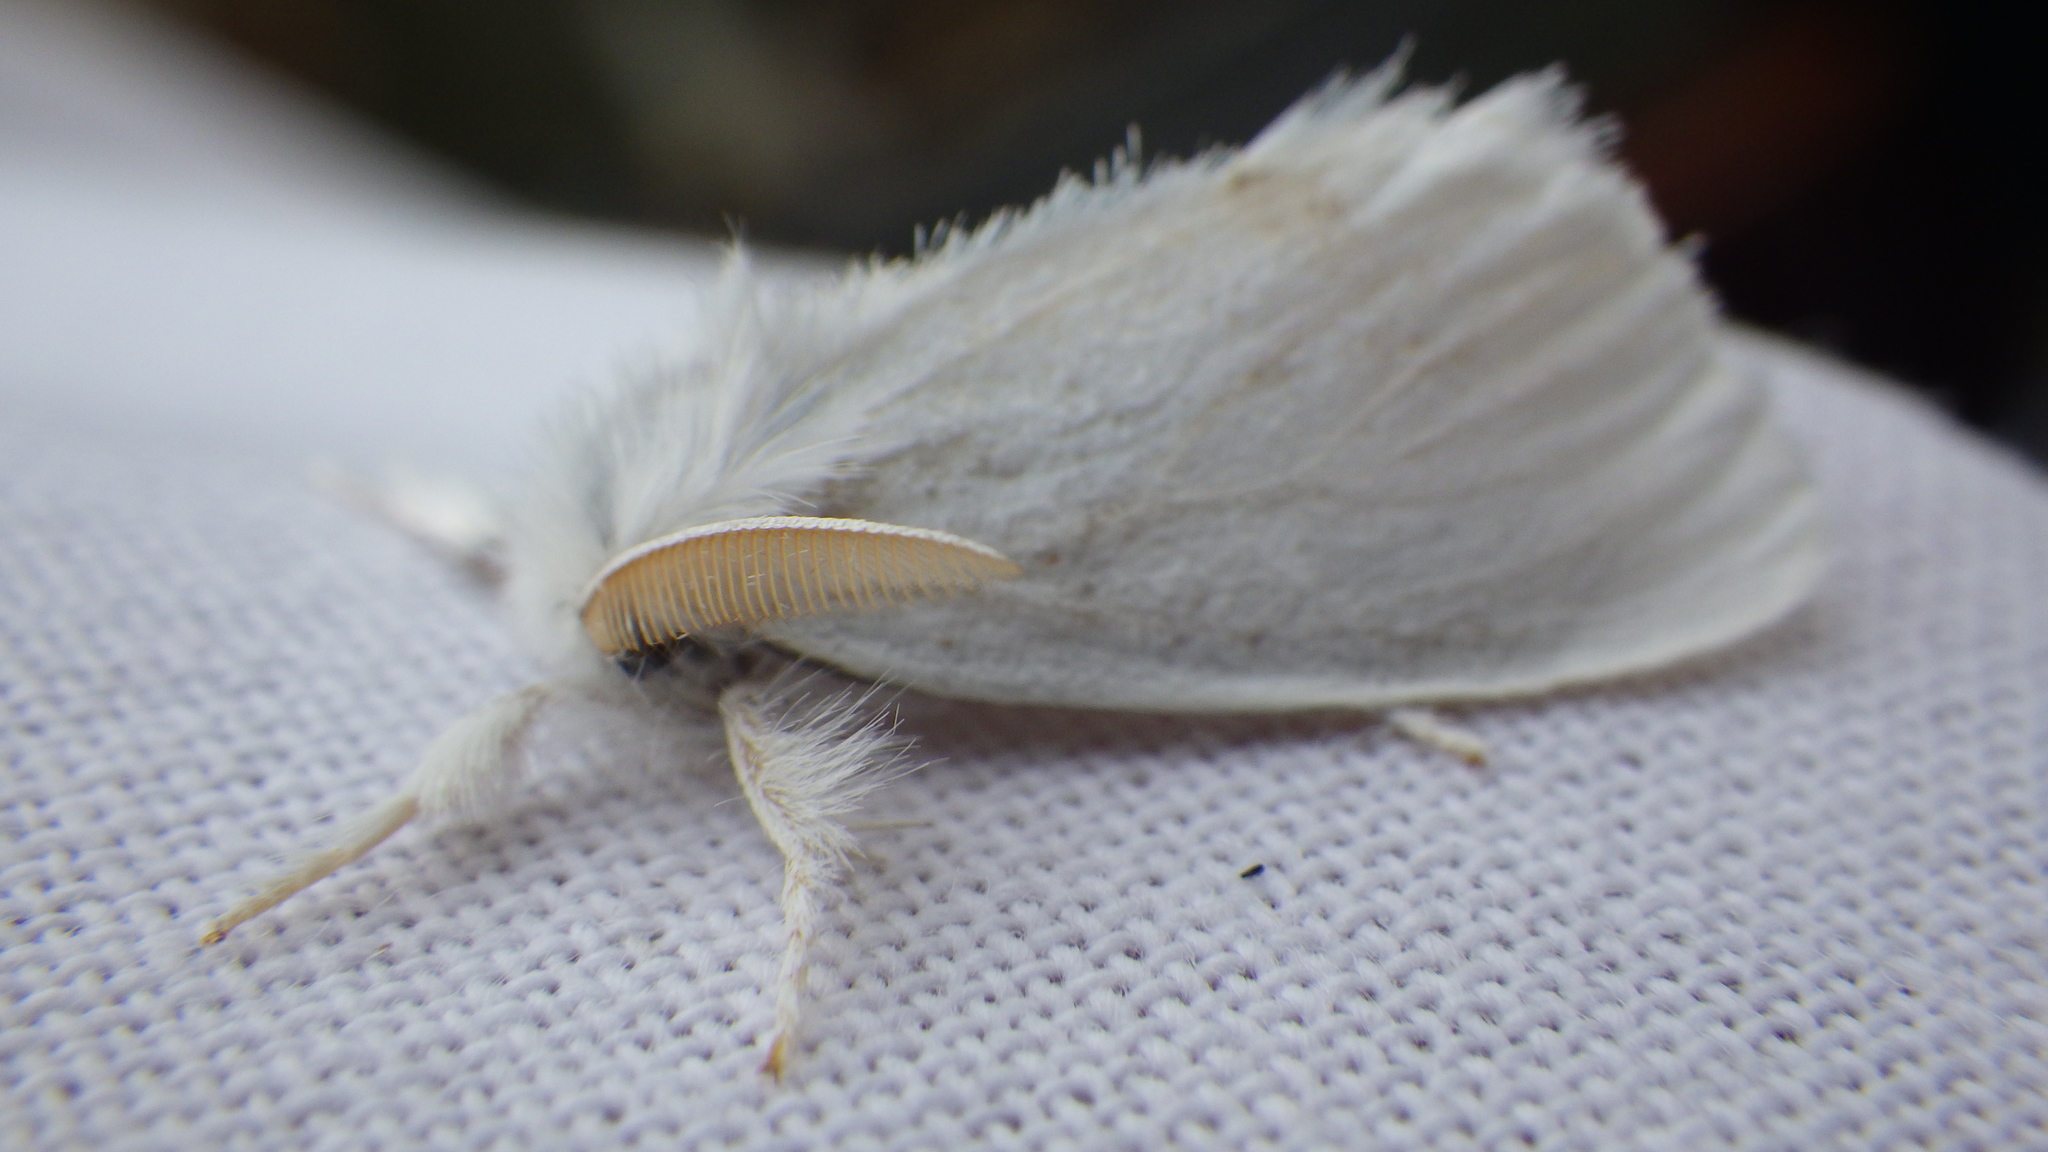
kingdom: Animalia
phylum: Arthropoda
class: Insecta
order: Lepidoptera
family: Erebidae
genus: Sphrageidus
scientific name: Sphrageidus similis
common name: Yellow-tail
